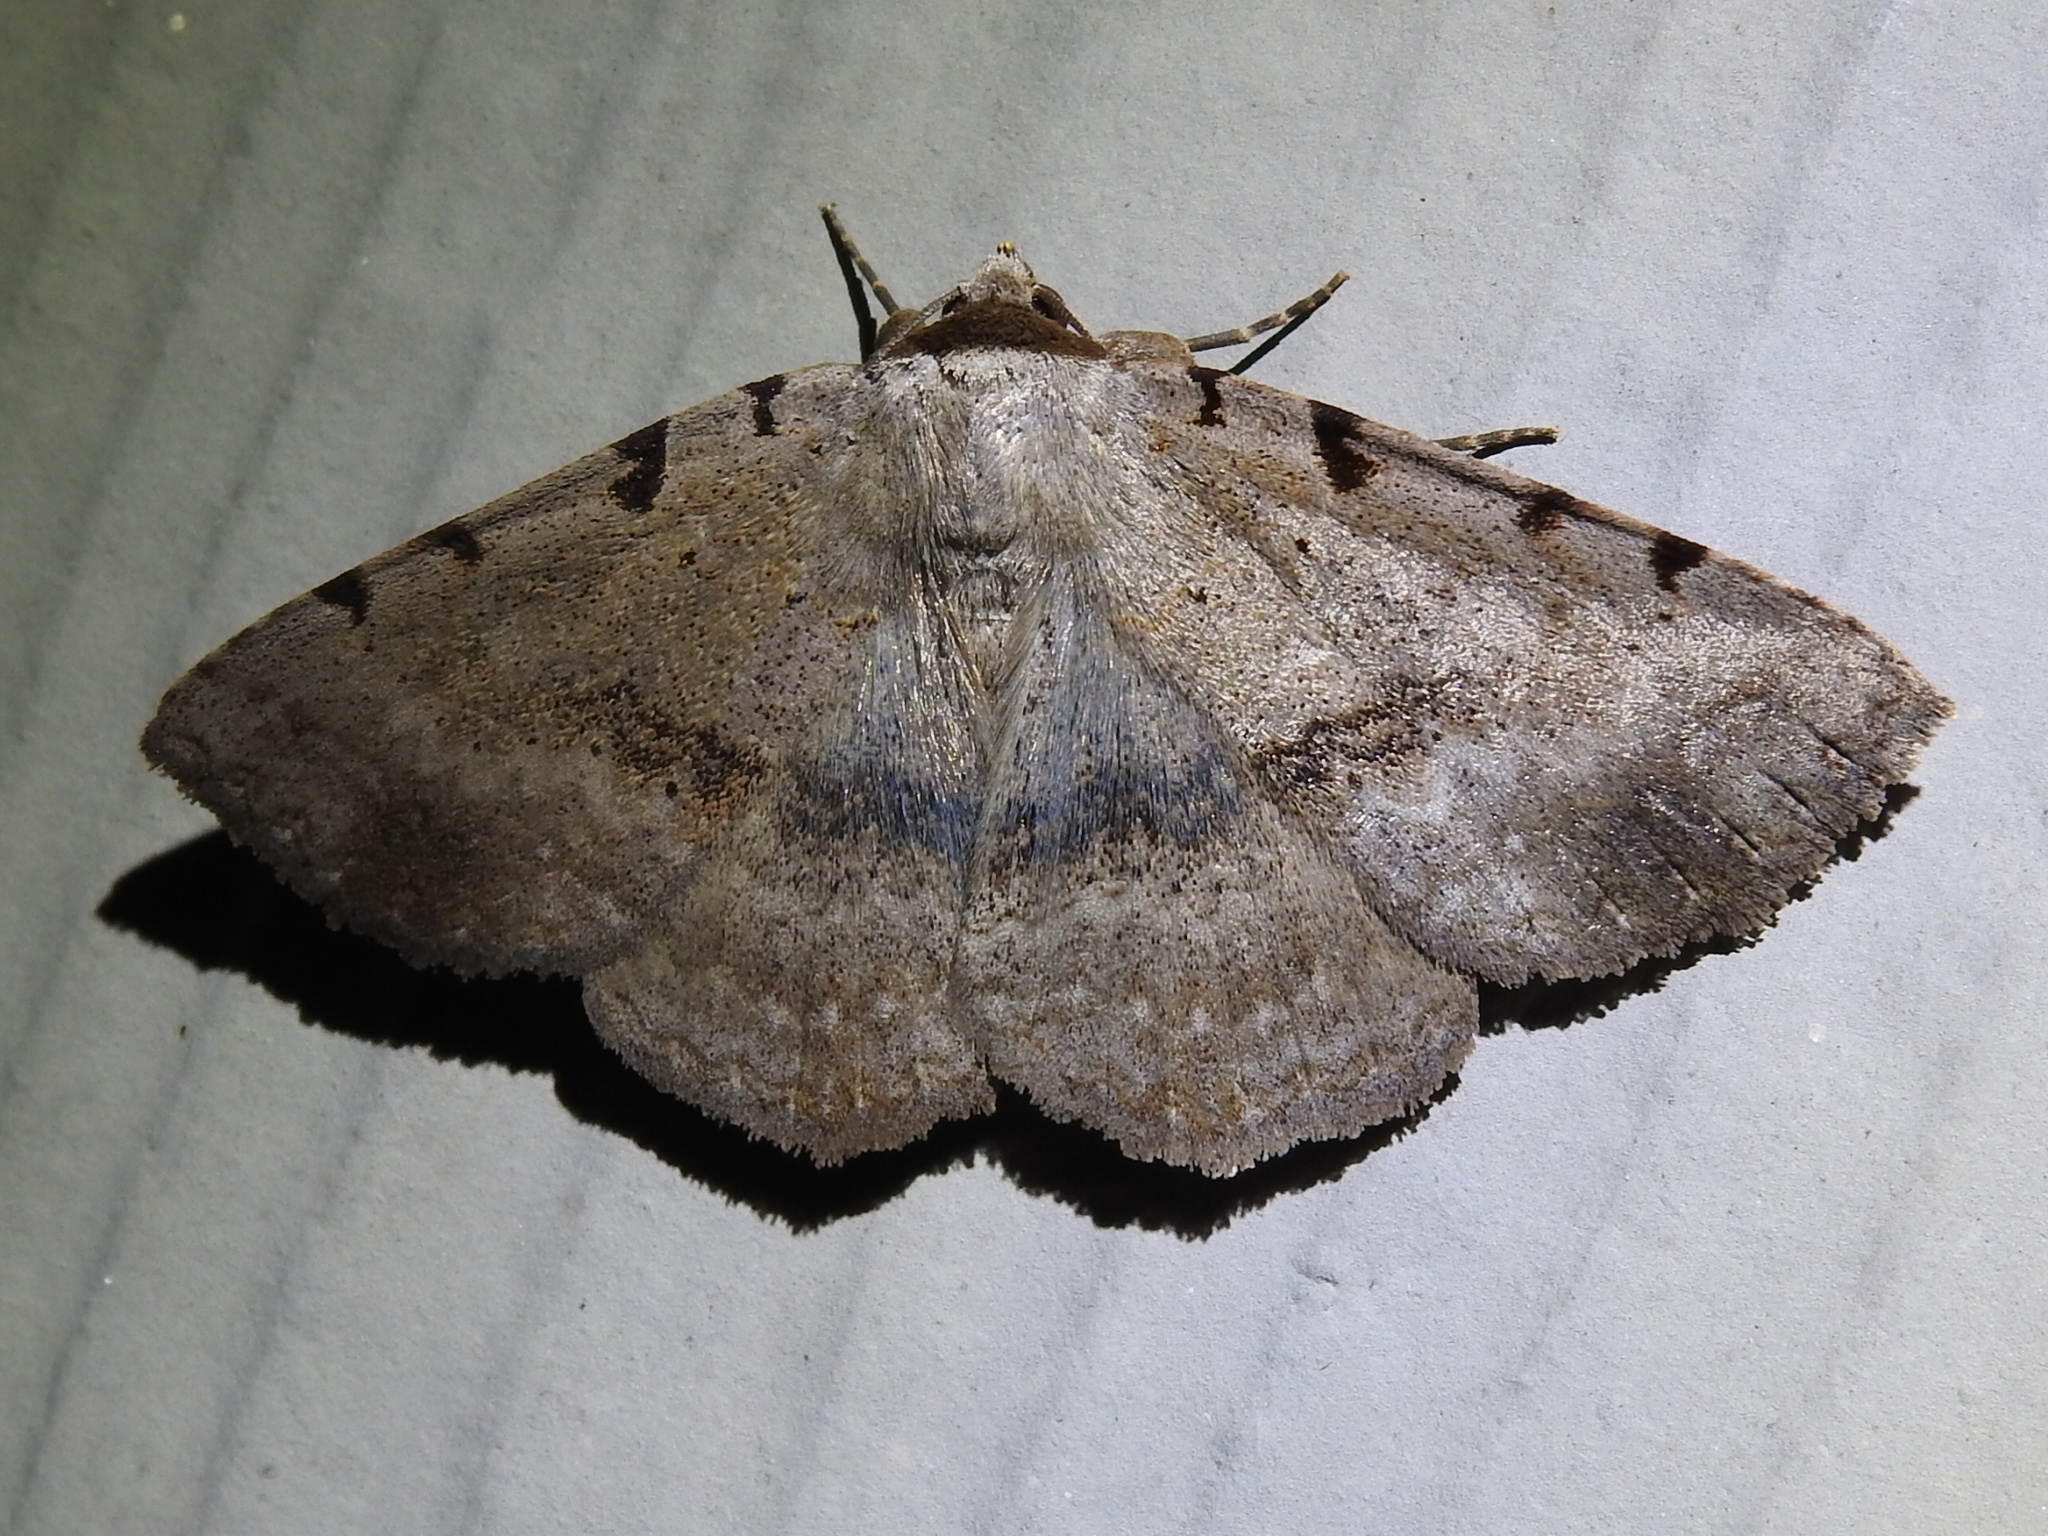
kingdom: Animalia
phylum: Arthropoda
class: Insecta
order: Lepidoptera
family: Erebidae
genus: Spiloloma
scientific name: Spiloloma lunilinea
